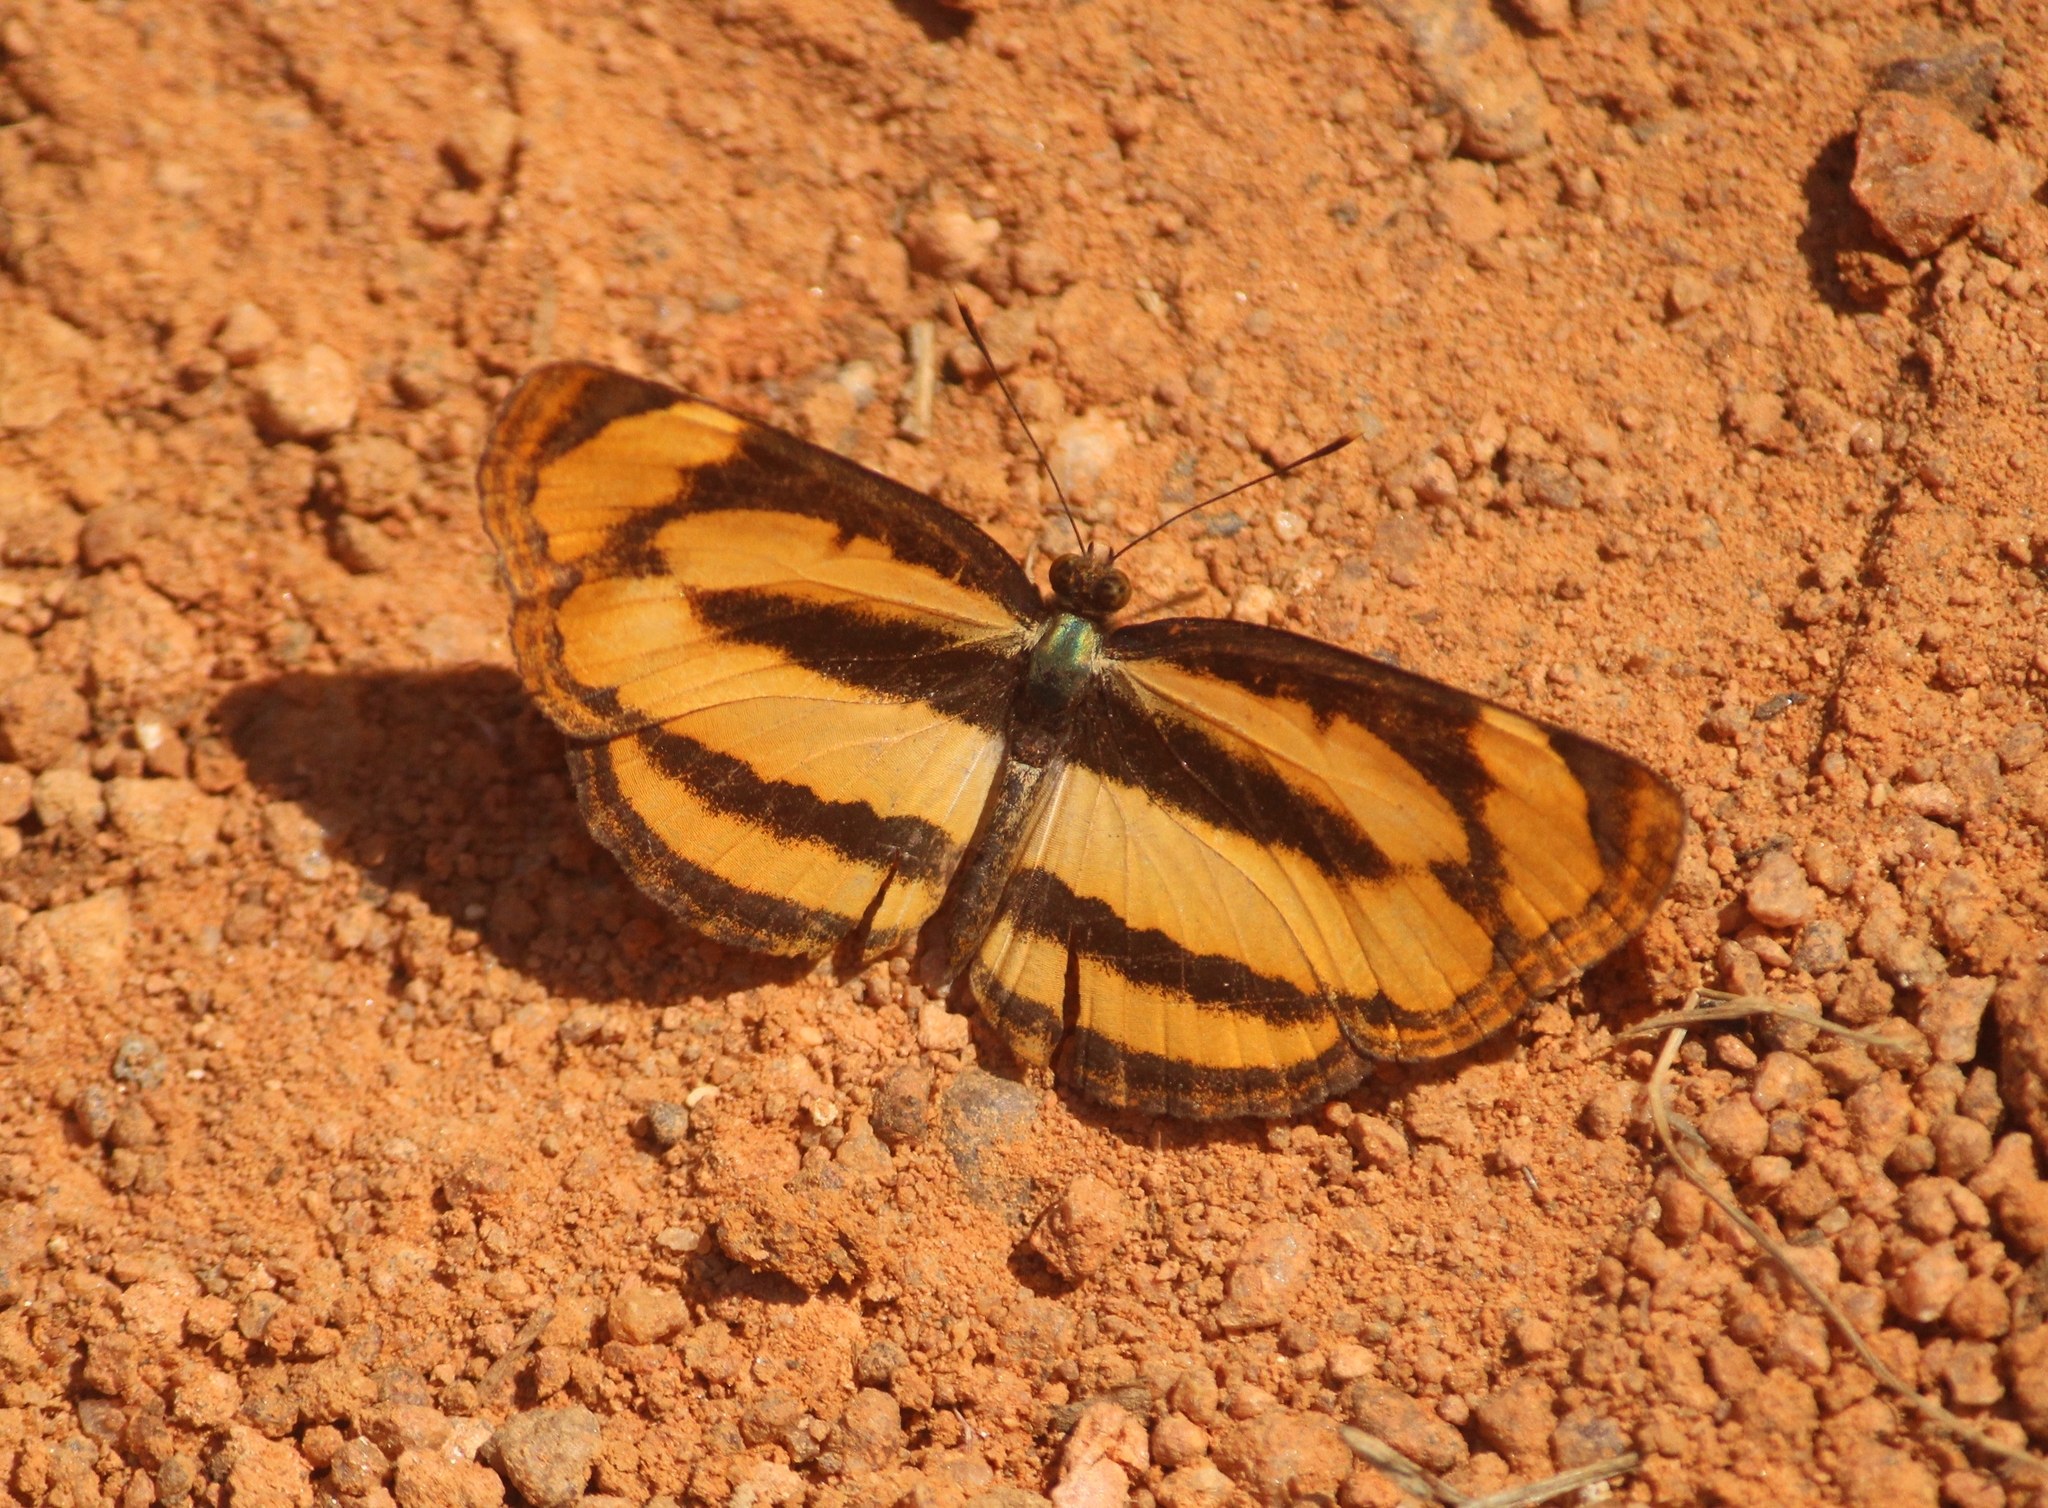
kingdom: Animalia
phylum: Arthropoda
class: Insecta
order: Lepidoptera
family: Nymphalidae
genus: Pantoporia
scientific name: Pantoporia hordonia
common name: Common lascar
